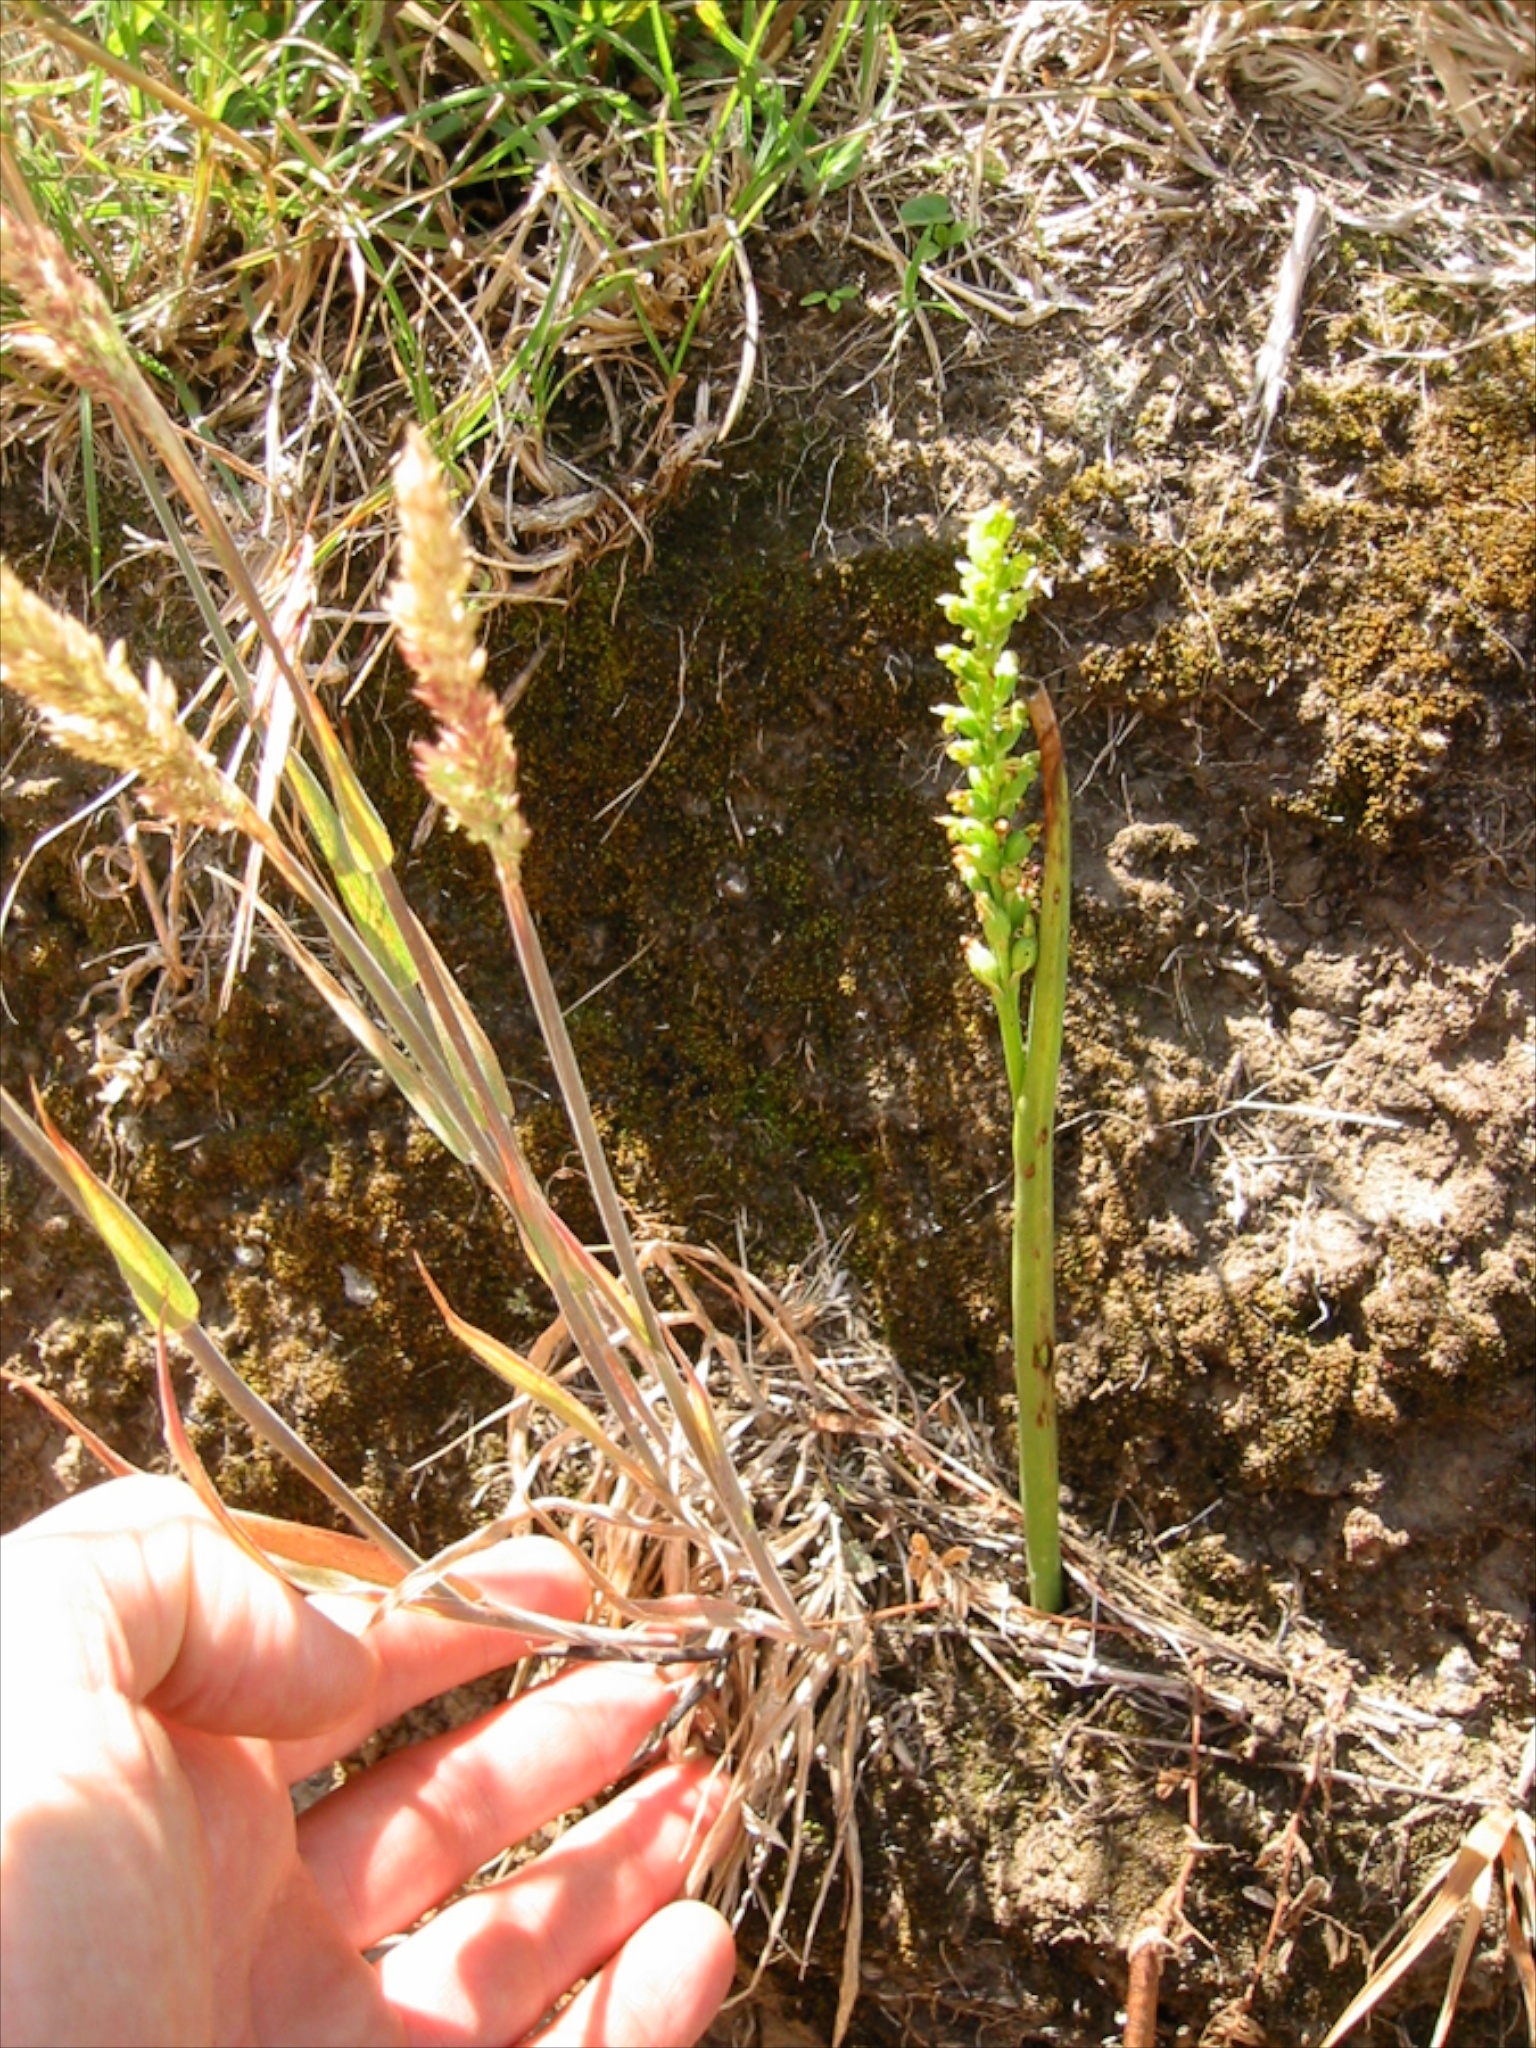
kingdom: Plantae
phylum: Tracheophyta
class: Liliopsida
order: Asparagales
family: Orchidaceae
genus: Microtis
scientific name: Microtis unifolia
